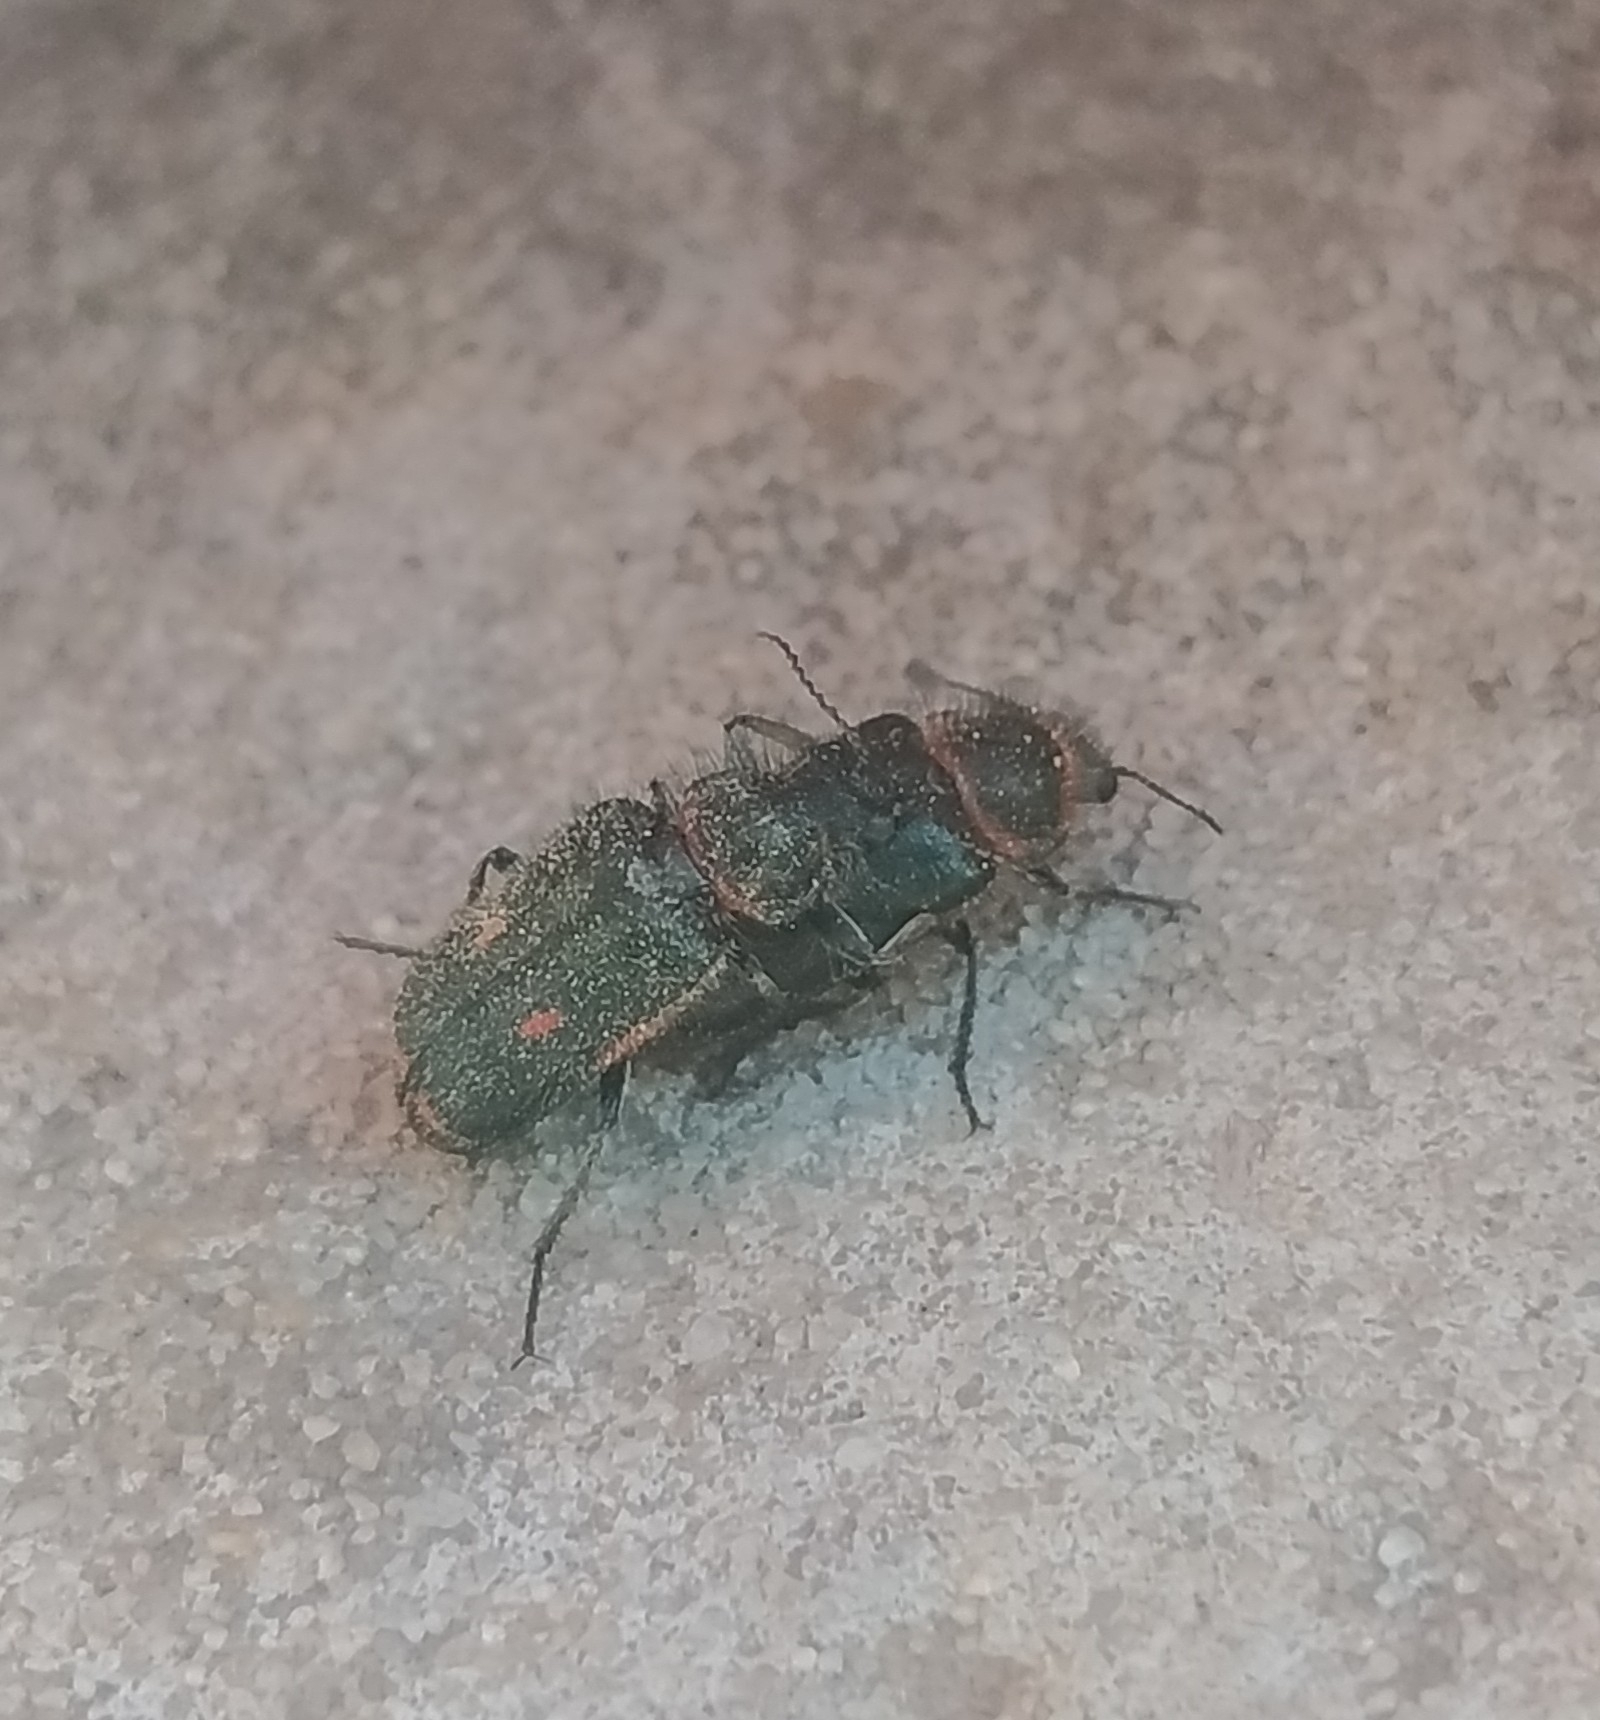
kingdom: Animalia
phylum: Arthropoda
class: Insecta
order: Coleoptera
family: Melyridae
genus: Astylus
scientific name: Astylus
